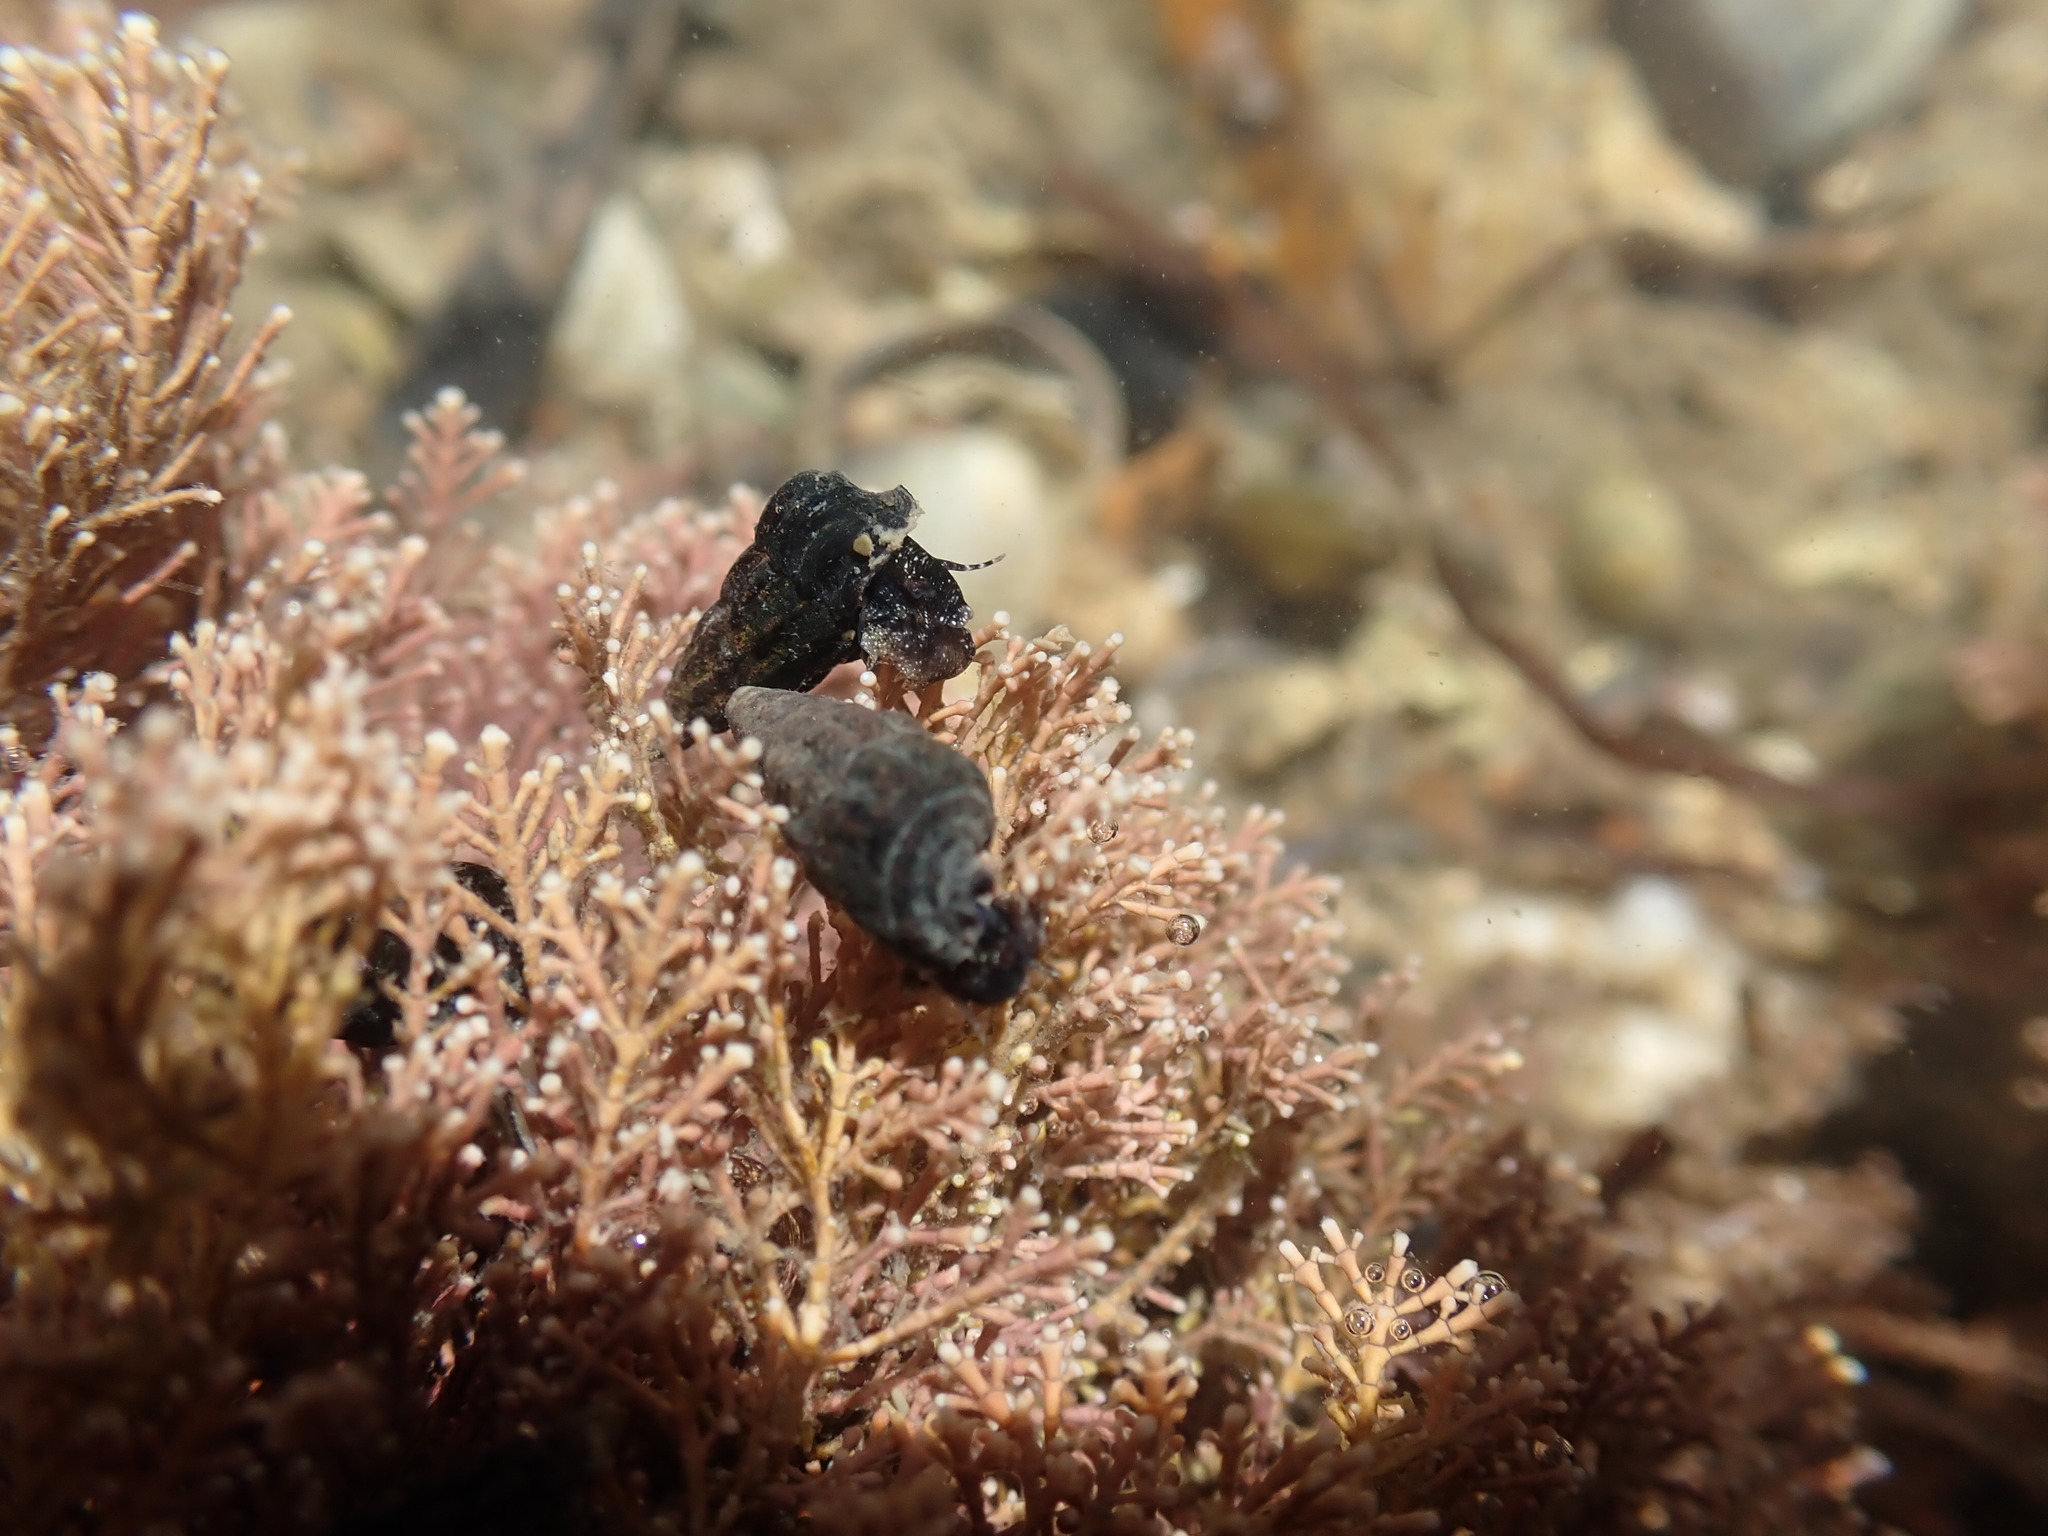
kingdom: Animalia
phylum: Mollusca
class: Gastropoda
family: Batillariidae
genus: Zeacumantus
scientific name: Zeacumantus subcarinatus
